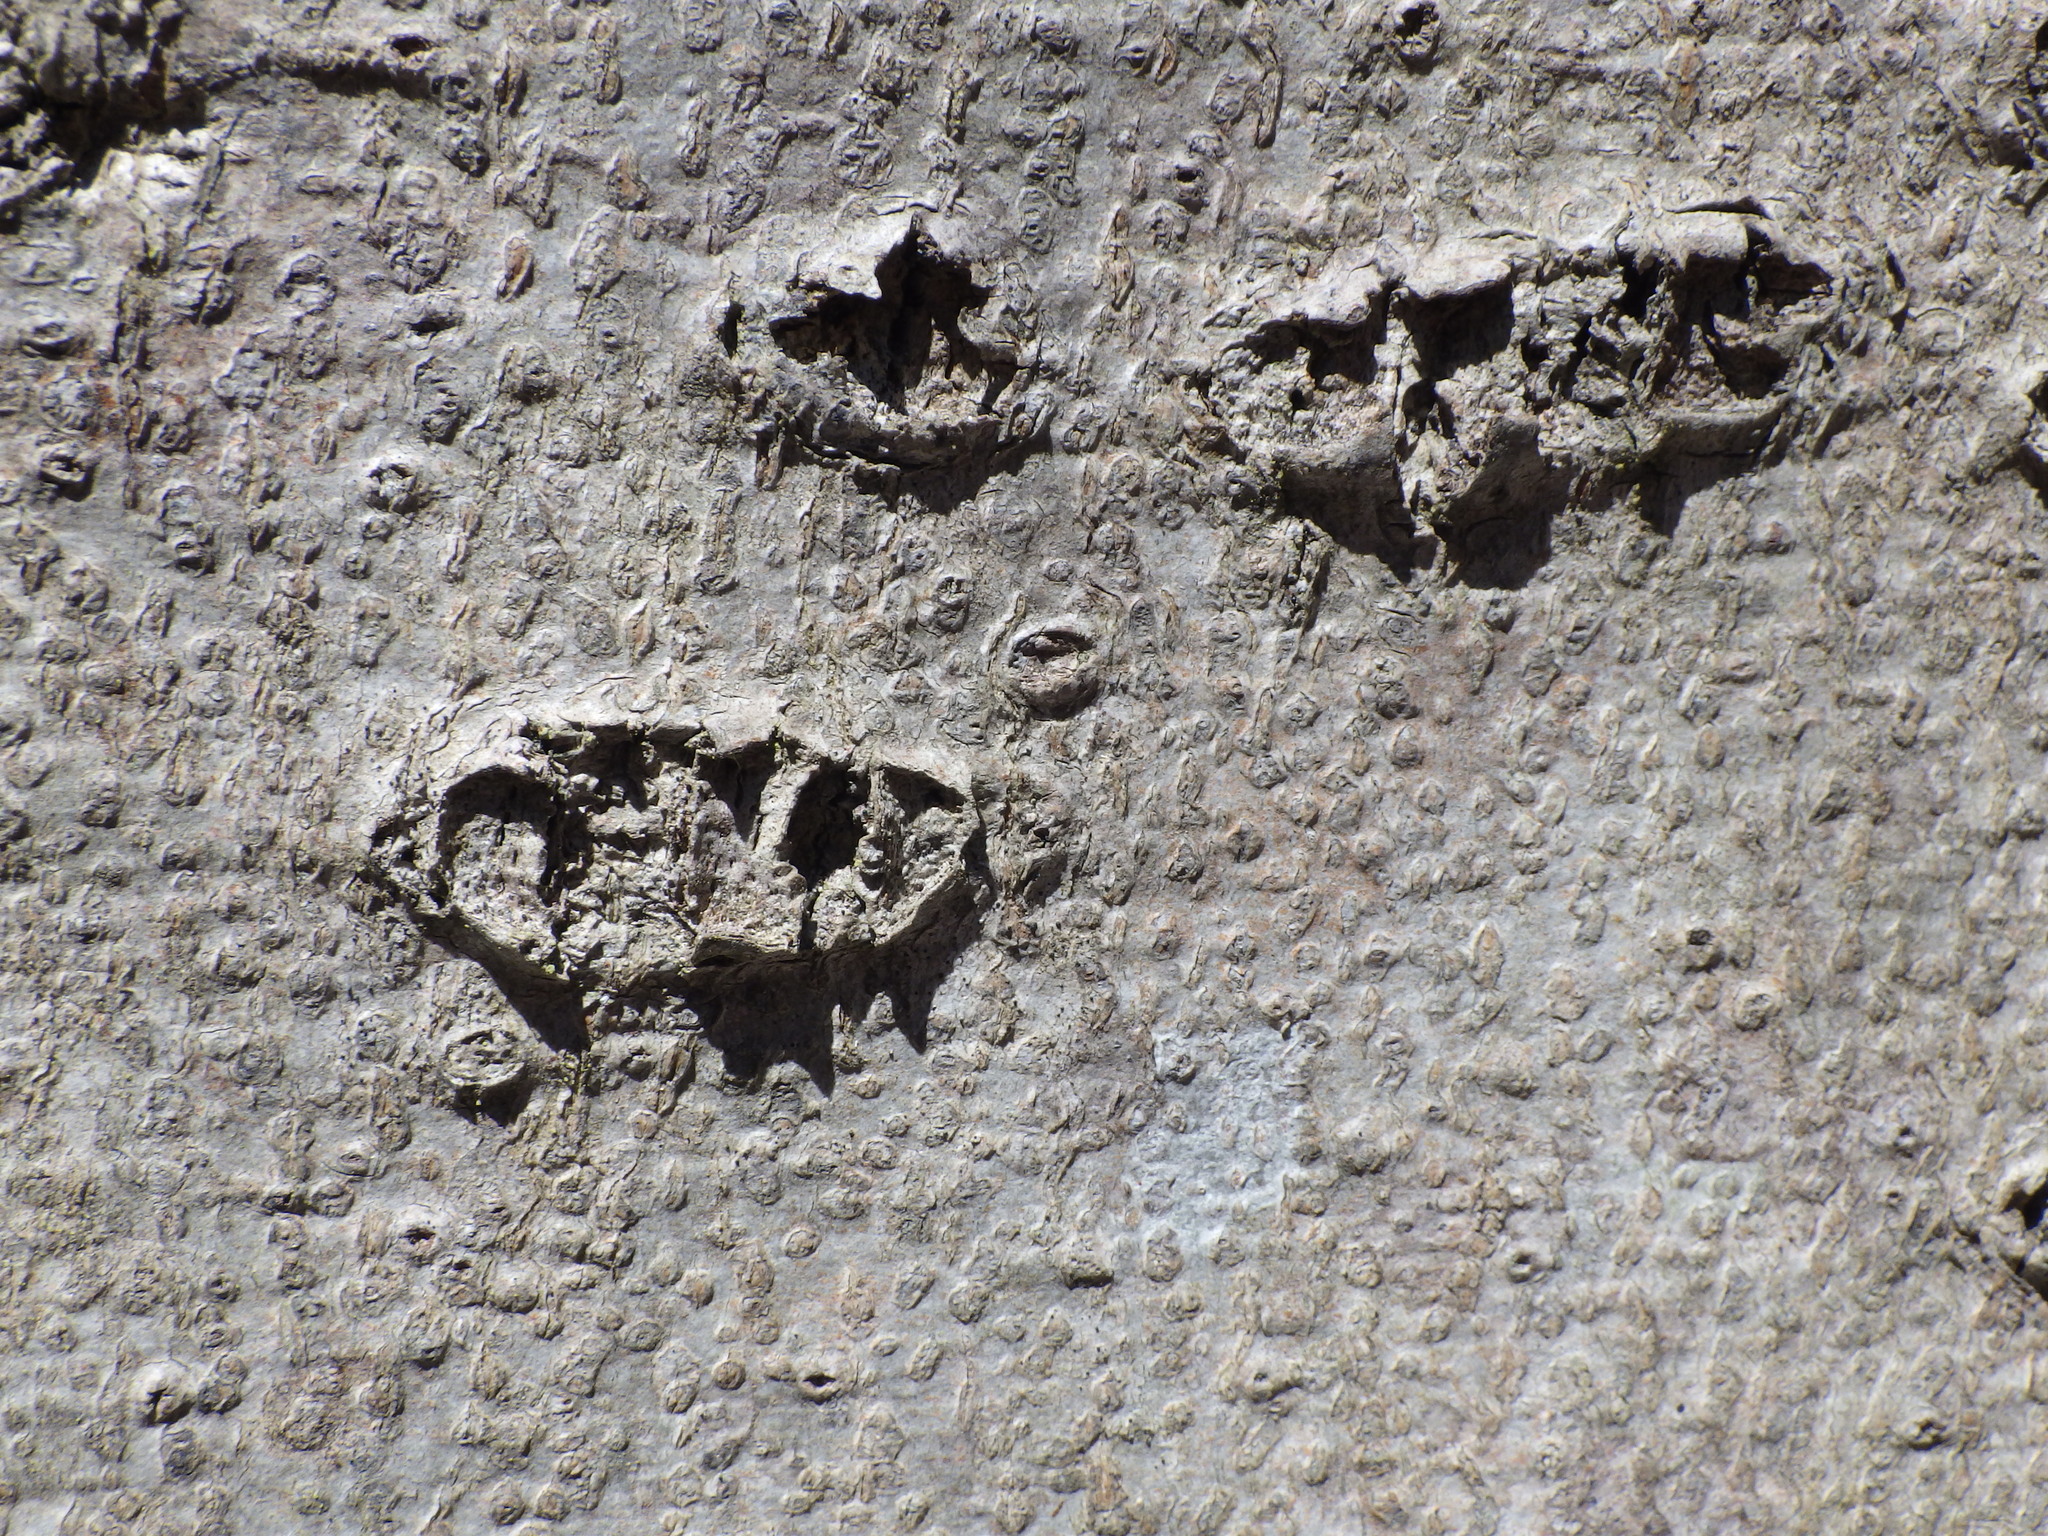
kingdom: Plantae
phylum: Tracheophyta
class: Magnoliopsida
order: Fagales
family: Fagaceae
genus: Fagus
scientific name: Fagus grandifolia
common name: American beech
